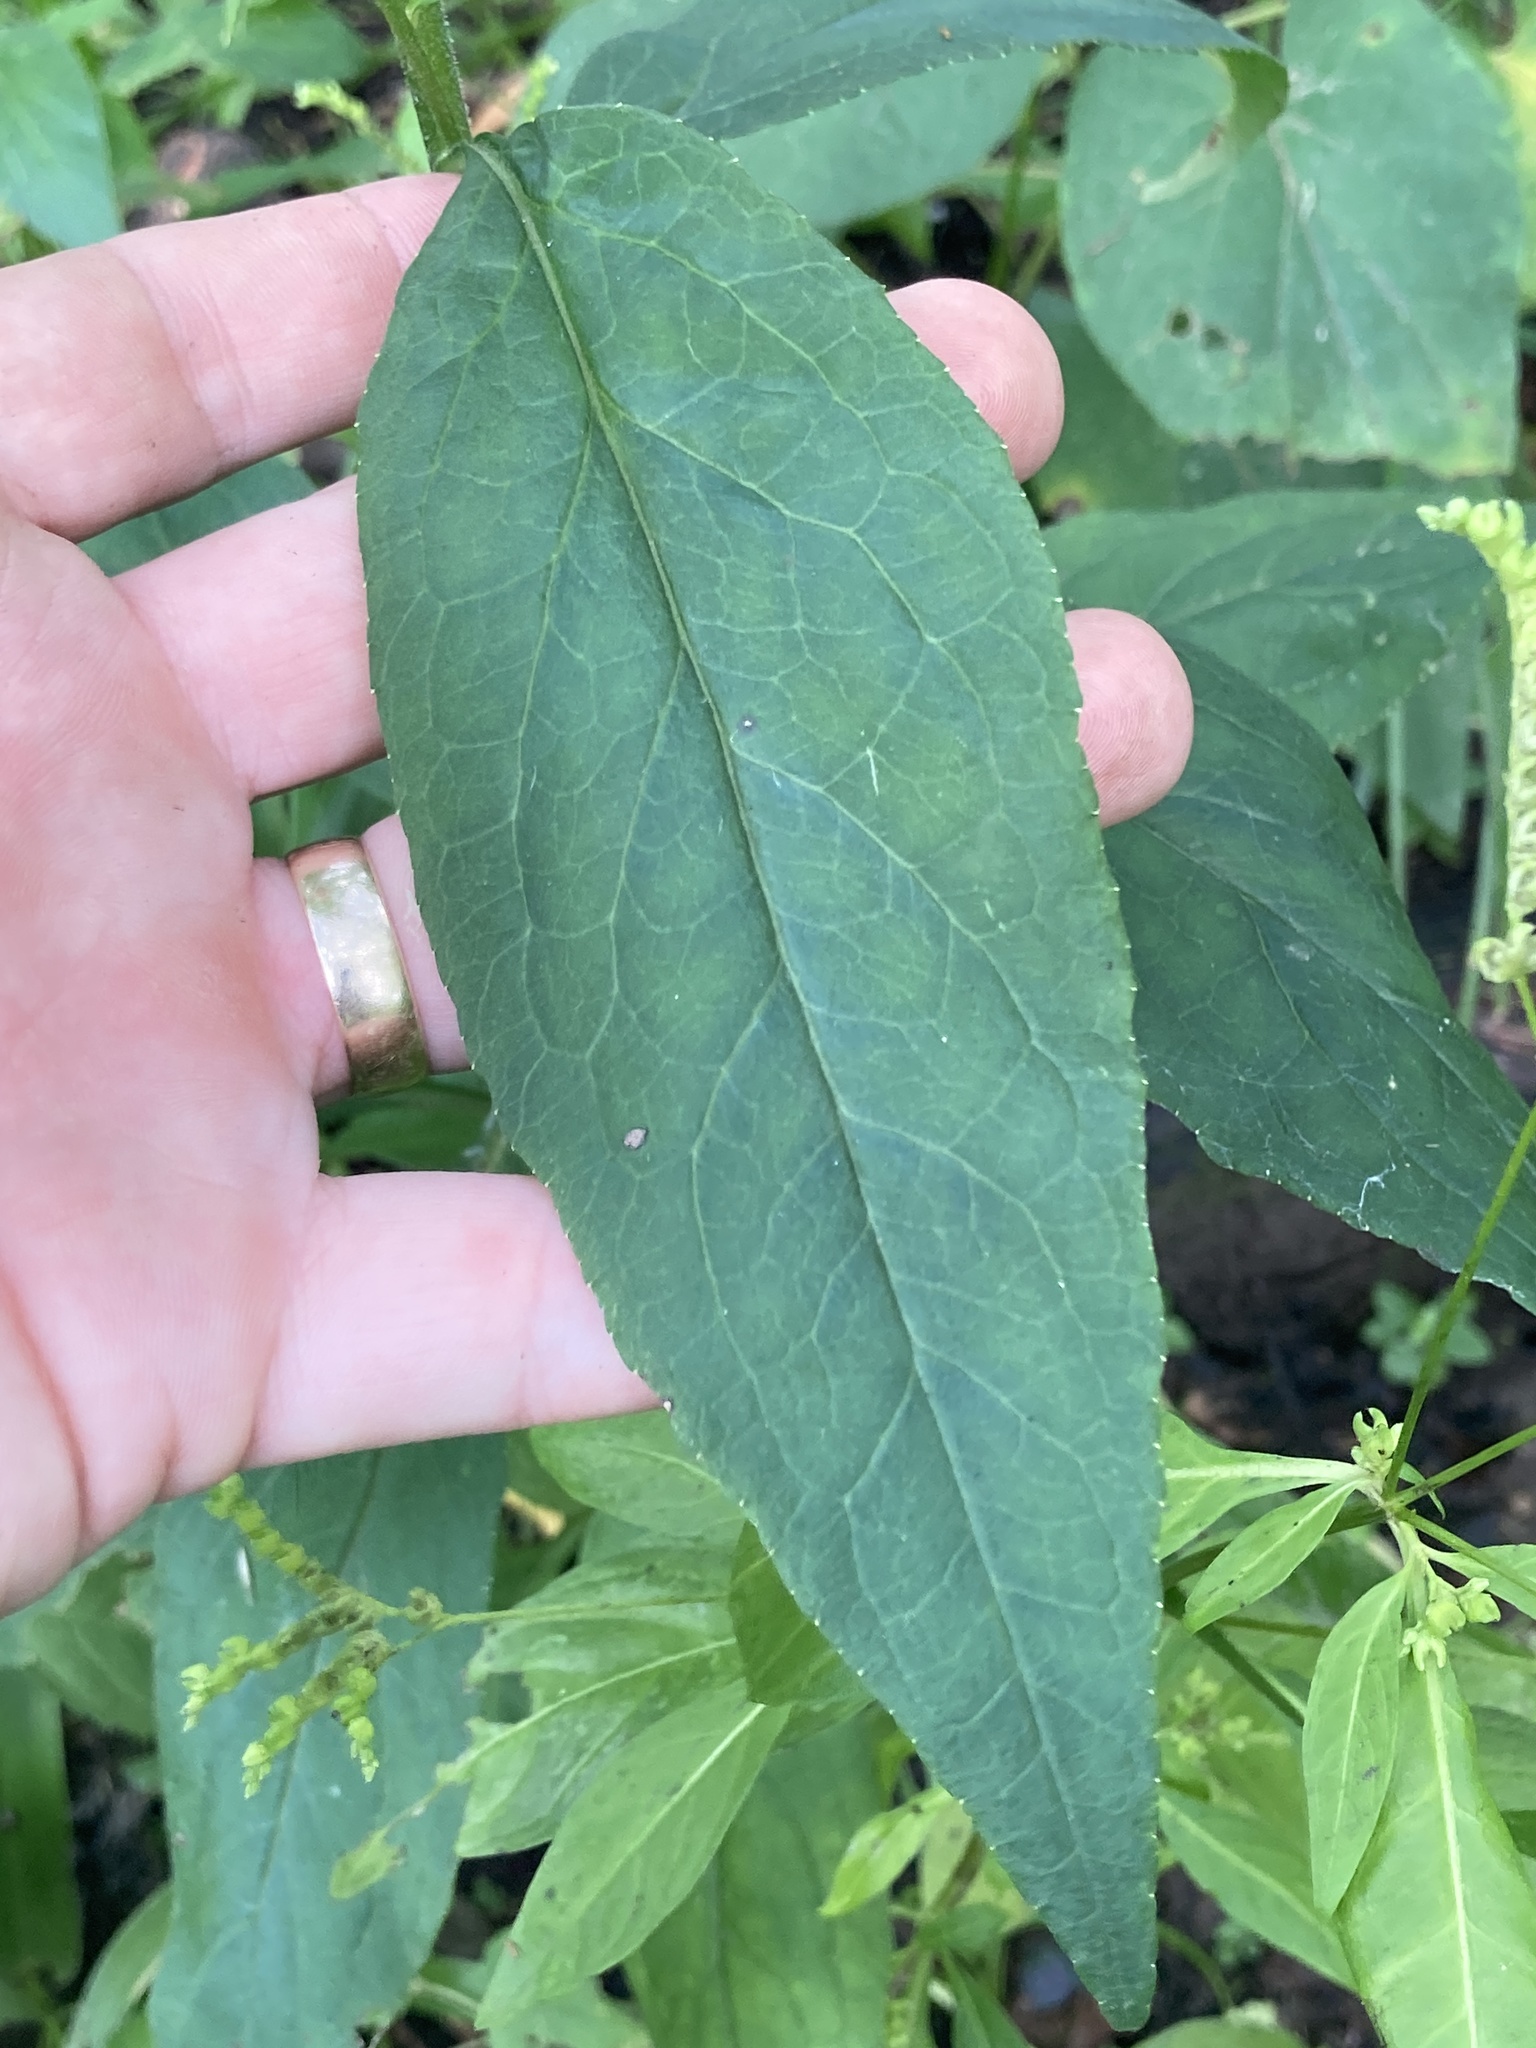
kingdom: Plantae
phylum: Tracheophyta
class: Magnoliopsida
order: Asterales
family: Campanulaceae
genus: Lobelia
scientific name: Lobelia cardinalis
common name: Cardinal flower
